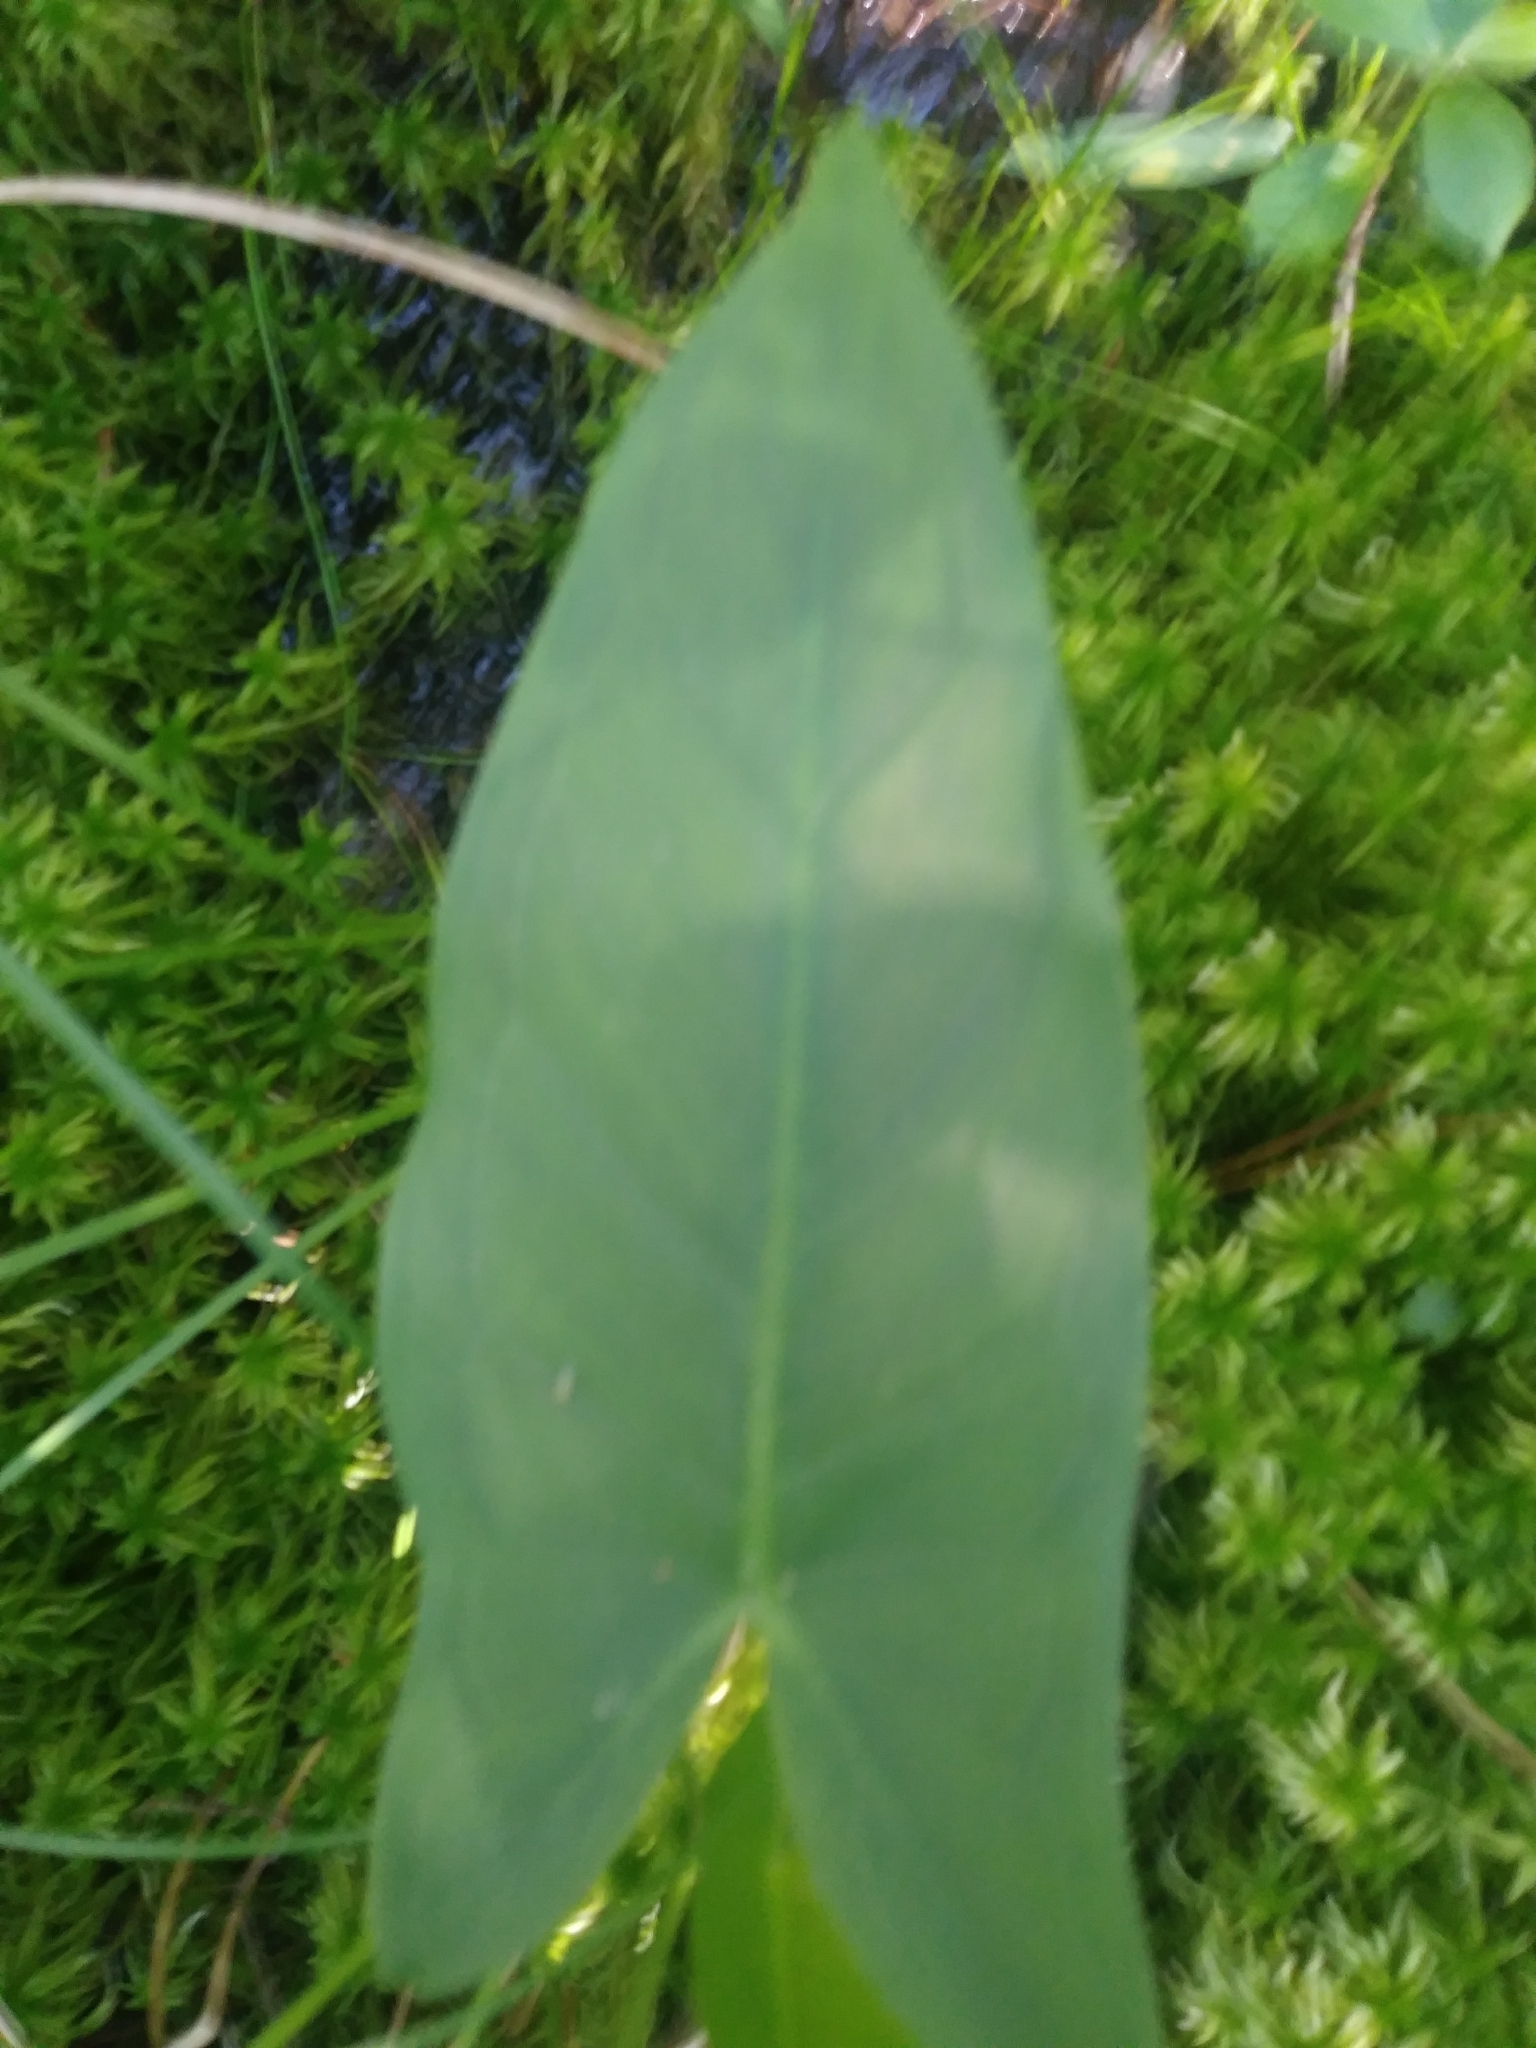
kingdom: Plantae
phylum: Tracheophyta
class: Liliopsida
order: Alismatales
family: Araceae
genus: Peltandra
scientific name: Peltandra virginica
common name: Arrow arum
